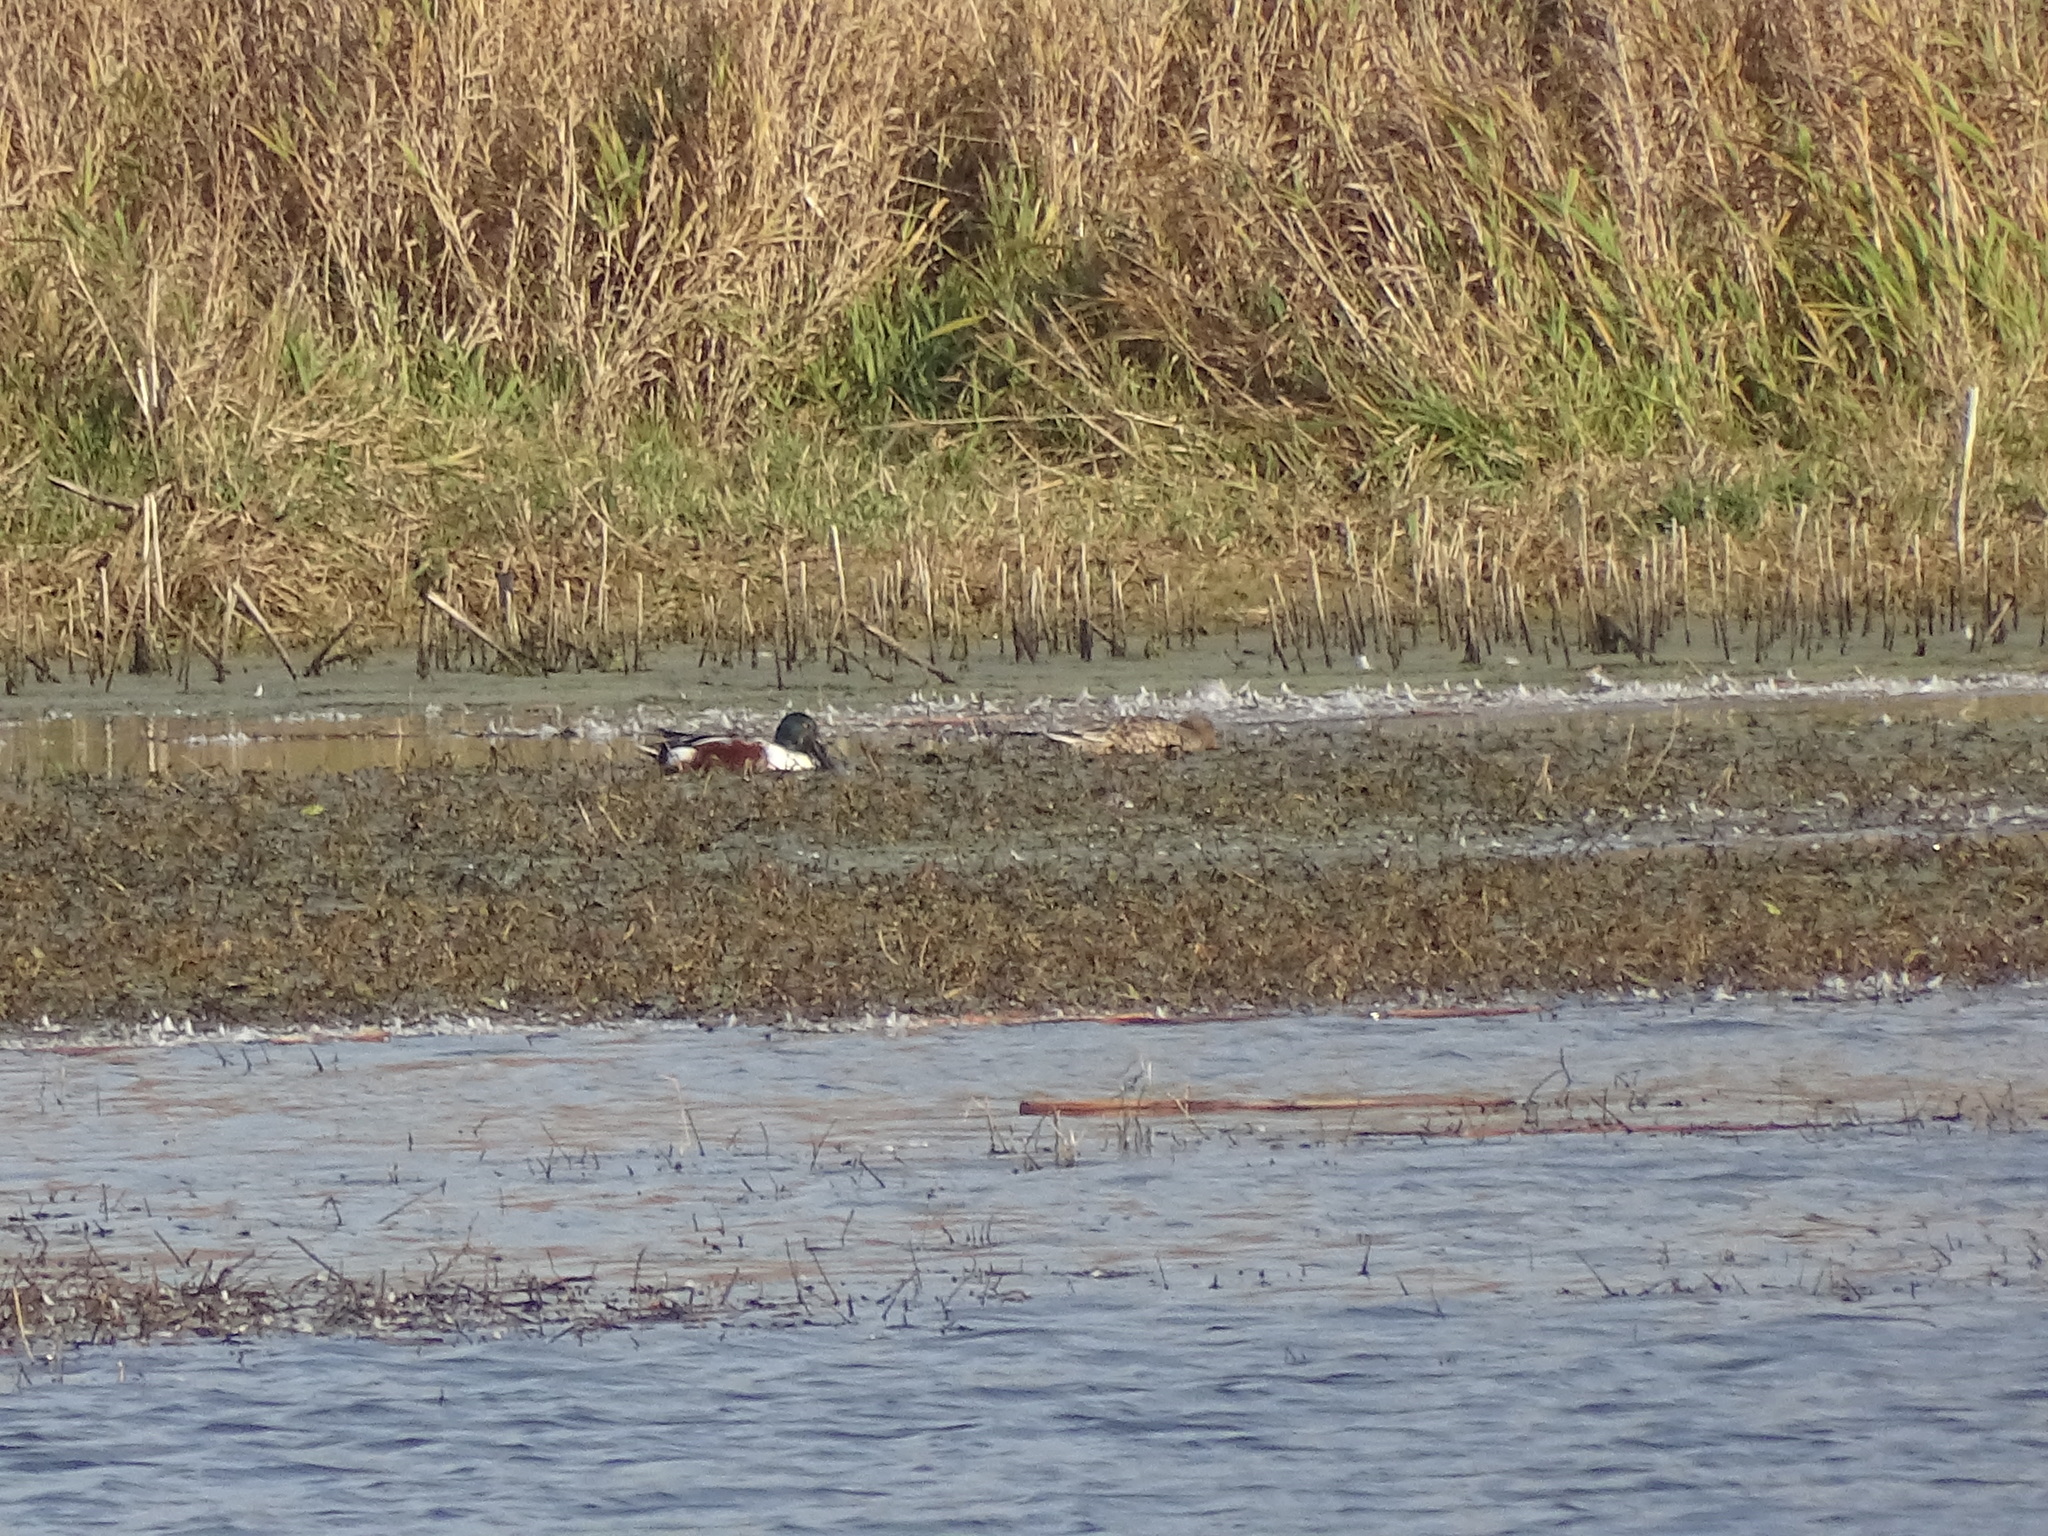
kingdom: Animalia
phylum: Chordata
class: Aves
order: Anseriformes
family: Anatidae
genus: Spatula
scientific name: Spatula clypeata
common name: Northern shoveler
